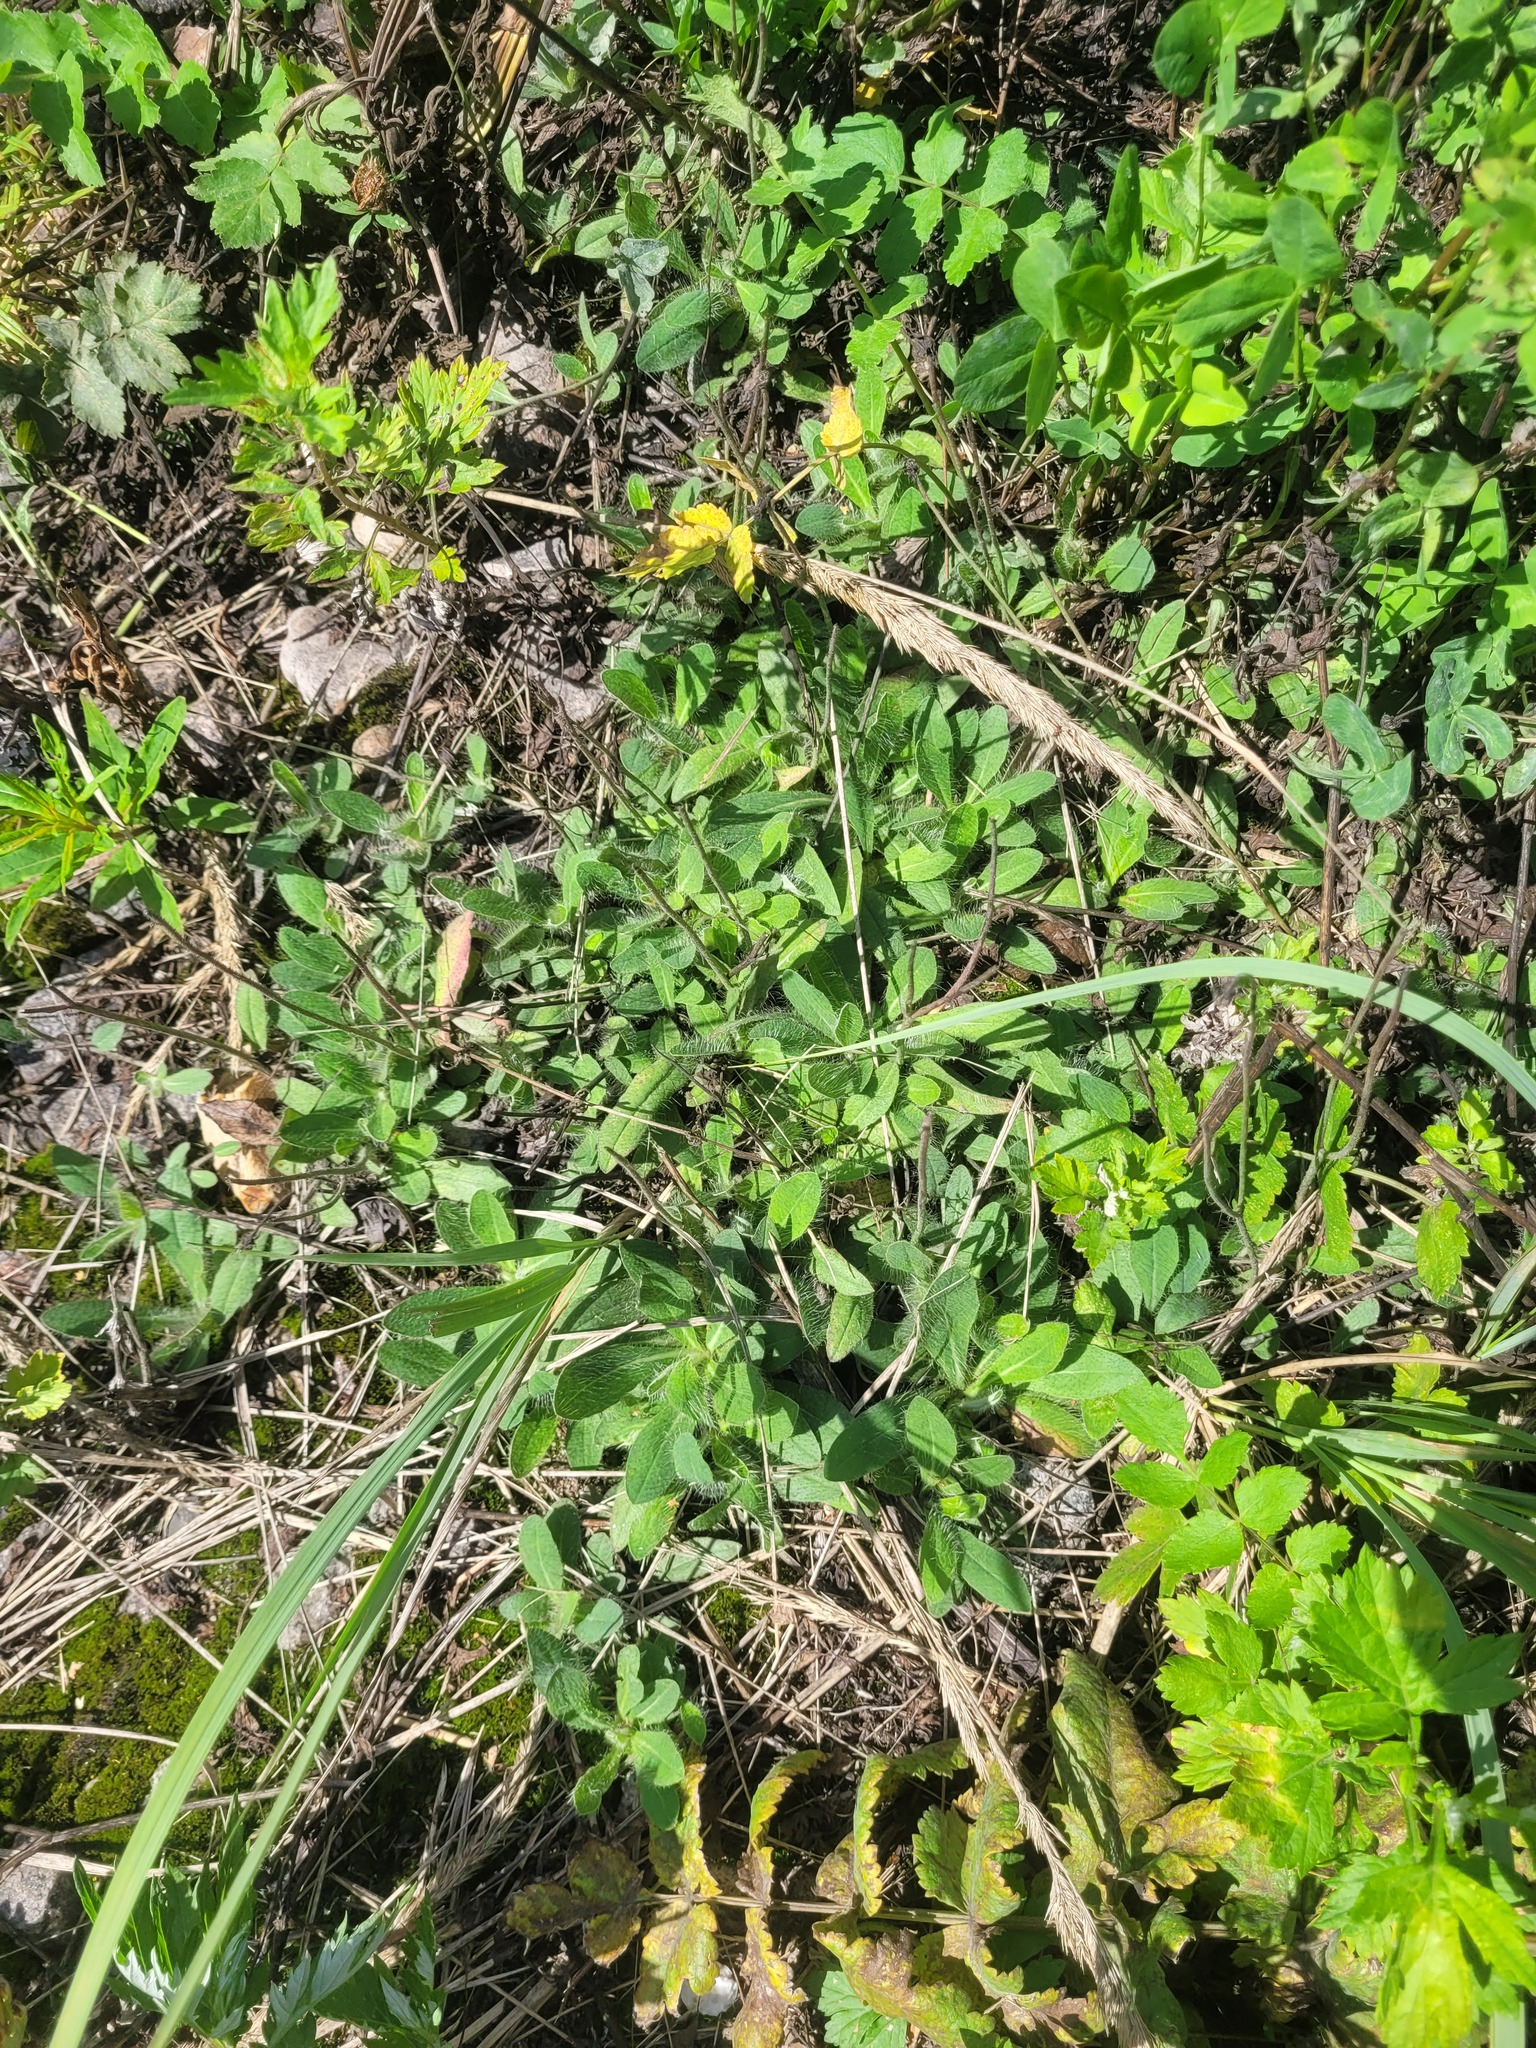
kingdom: Plantae
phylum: Tracheophyta
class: Magnoliopsida
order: Asterales
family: Asteraceae
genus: Pilosella
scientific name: Pilosella officinarum
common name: Mouse-ear hawkweed
